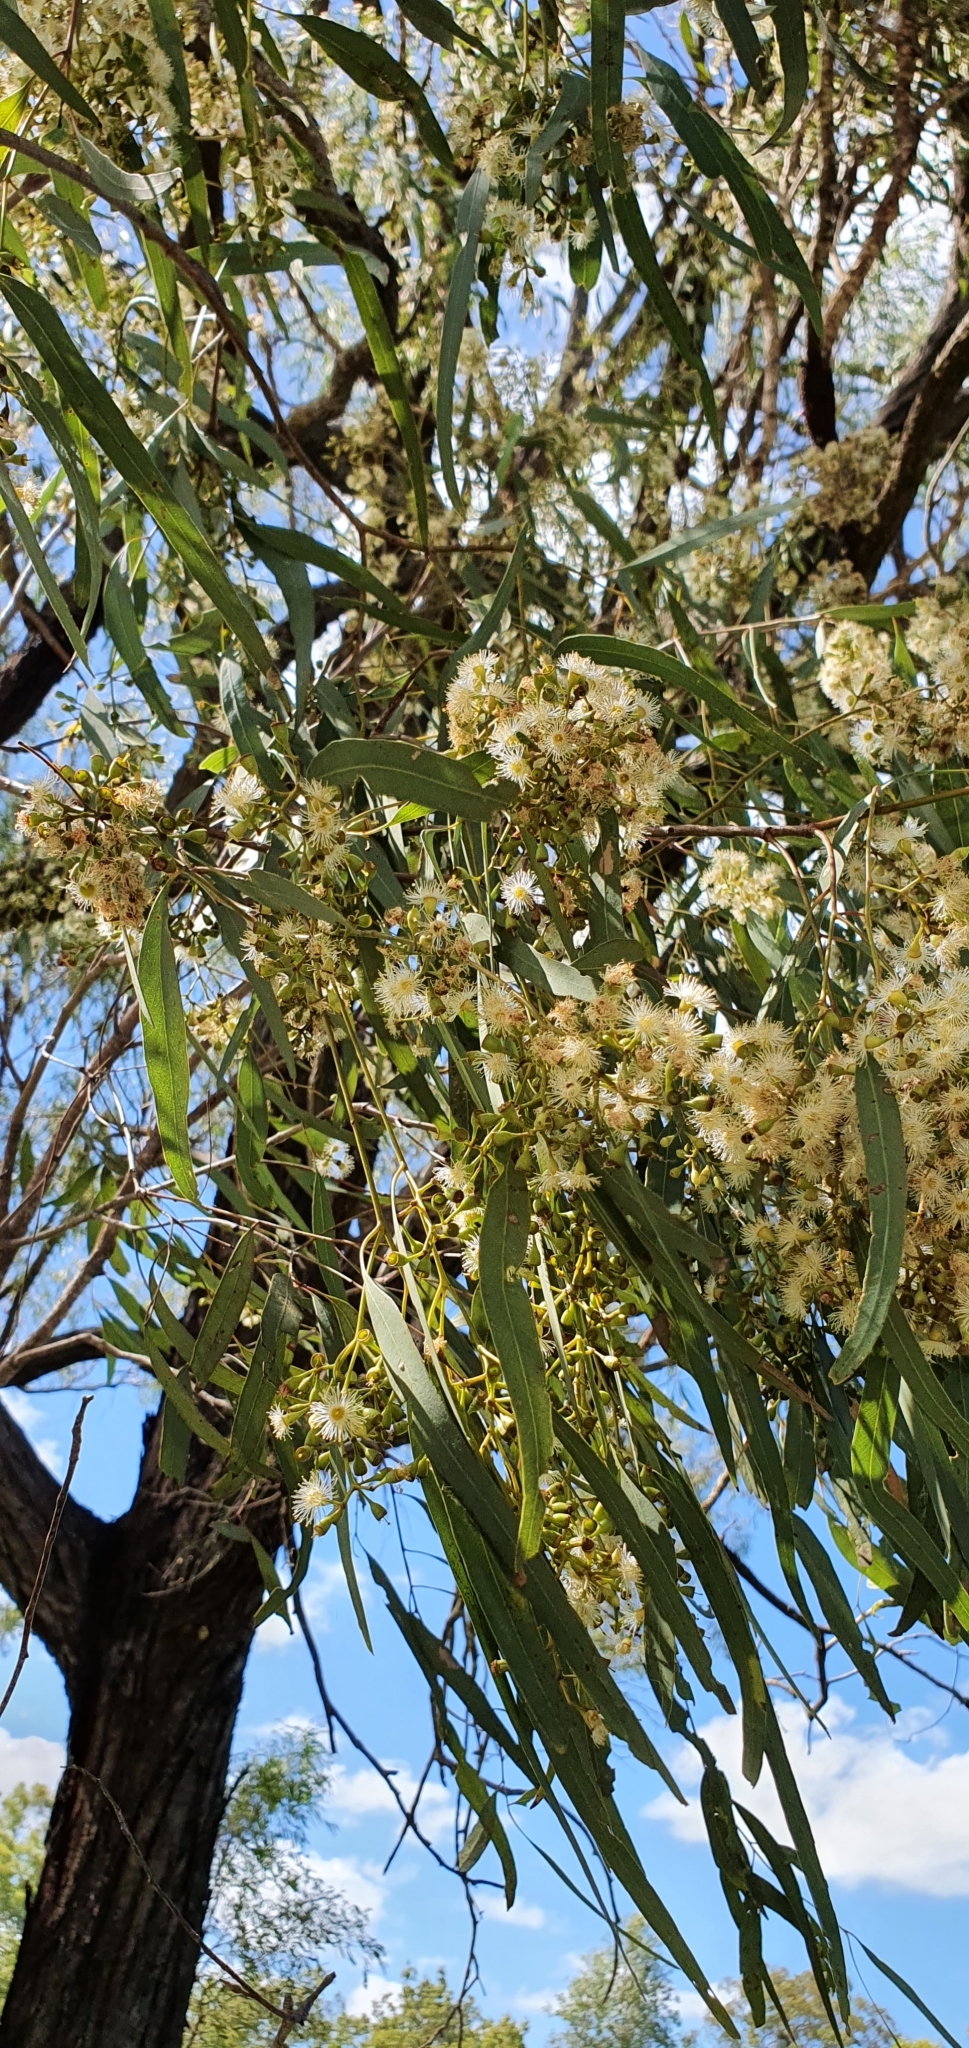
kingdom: Plantae
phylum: Tracheophyta
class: Magnoliopsida
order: Myrtales
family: Myrtaceae
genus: Eucalyptus
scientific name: Eucalyptus crebra
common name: Narrowleaf red ironbark
